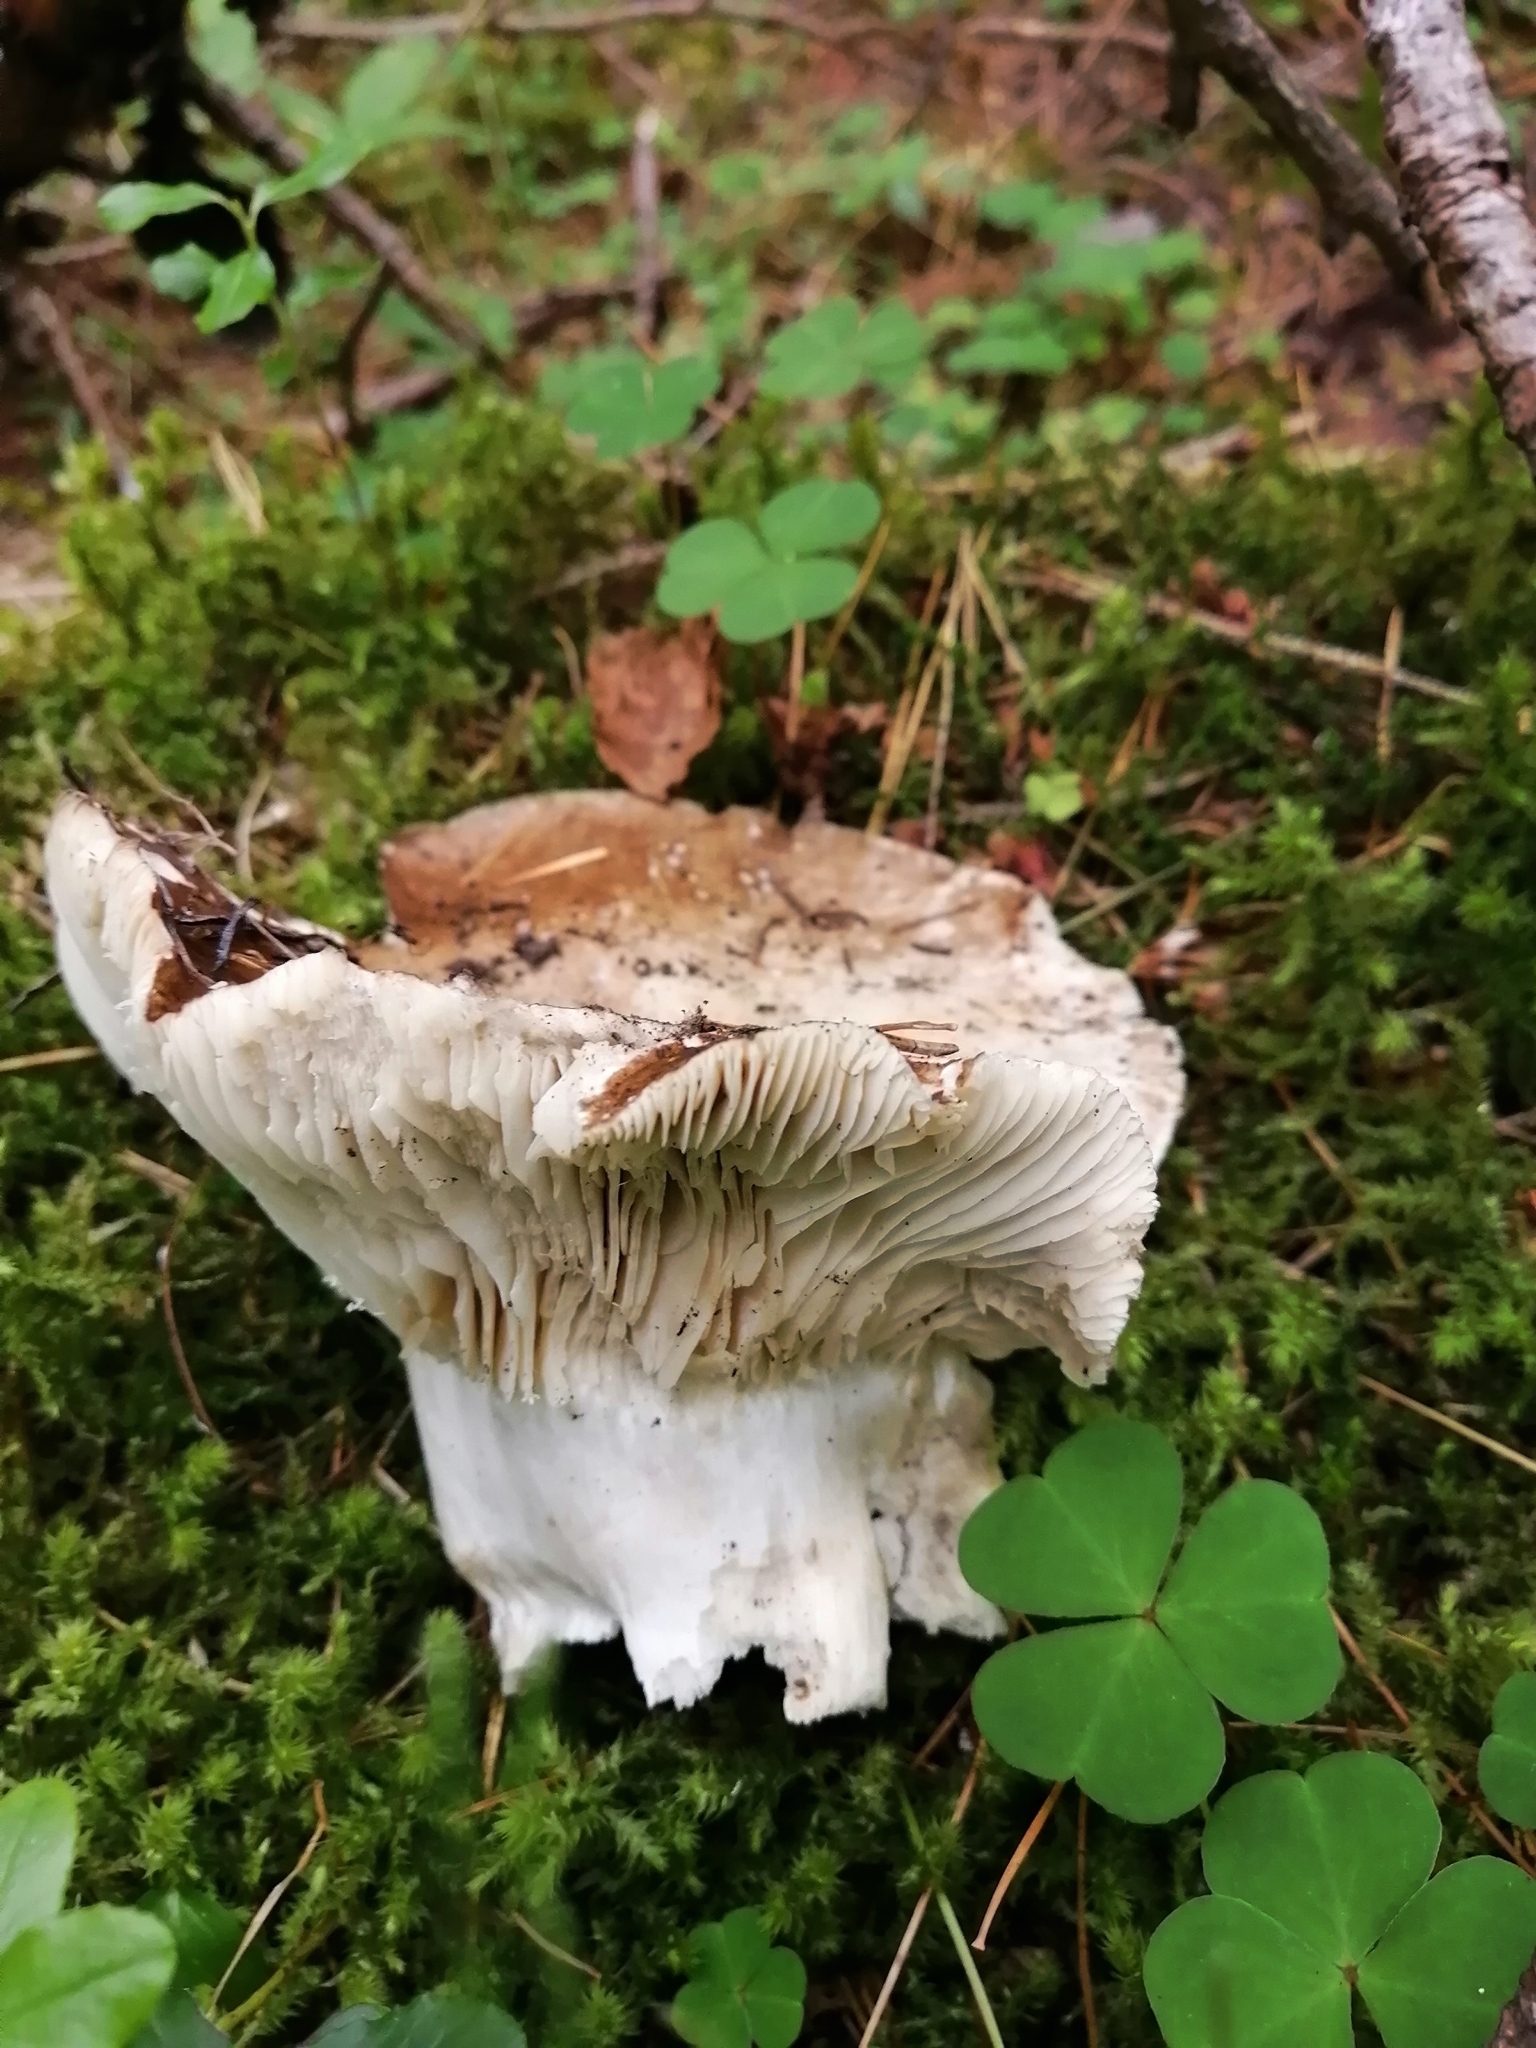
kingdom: Fungi
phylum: Basidiomycota
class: Agaricomycetes
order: Russulales
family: Russulaceae
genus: Russula
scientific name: Russula adusta
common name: Winecork brittlegill
